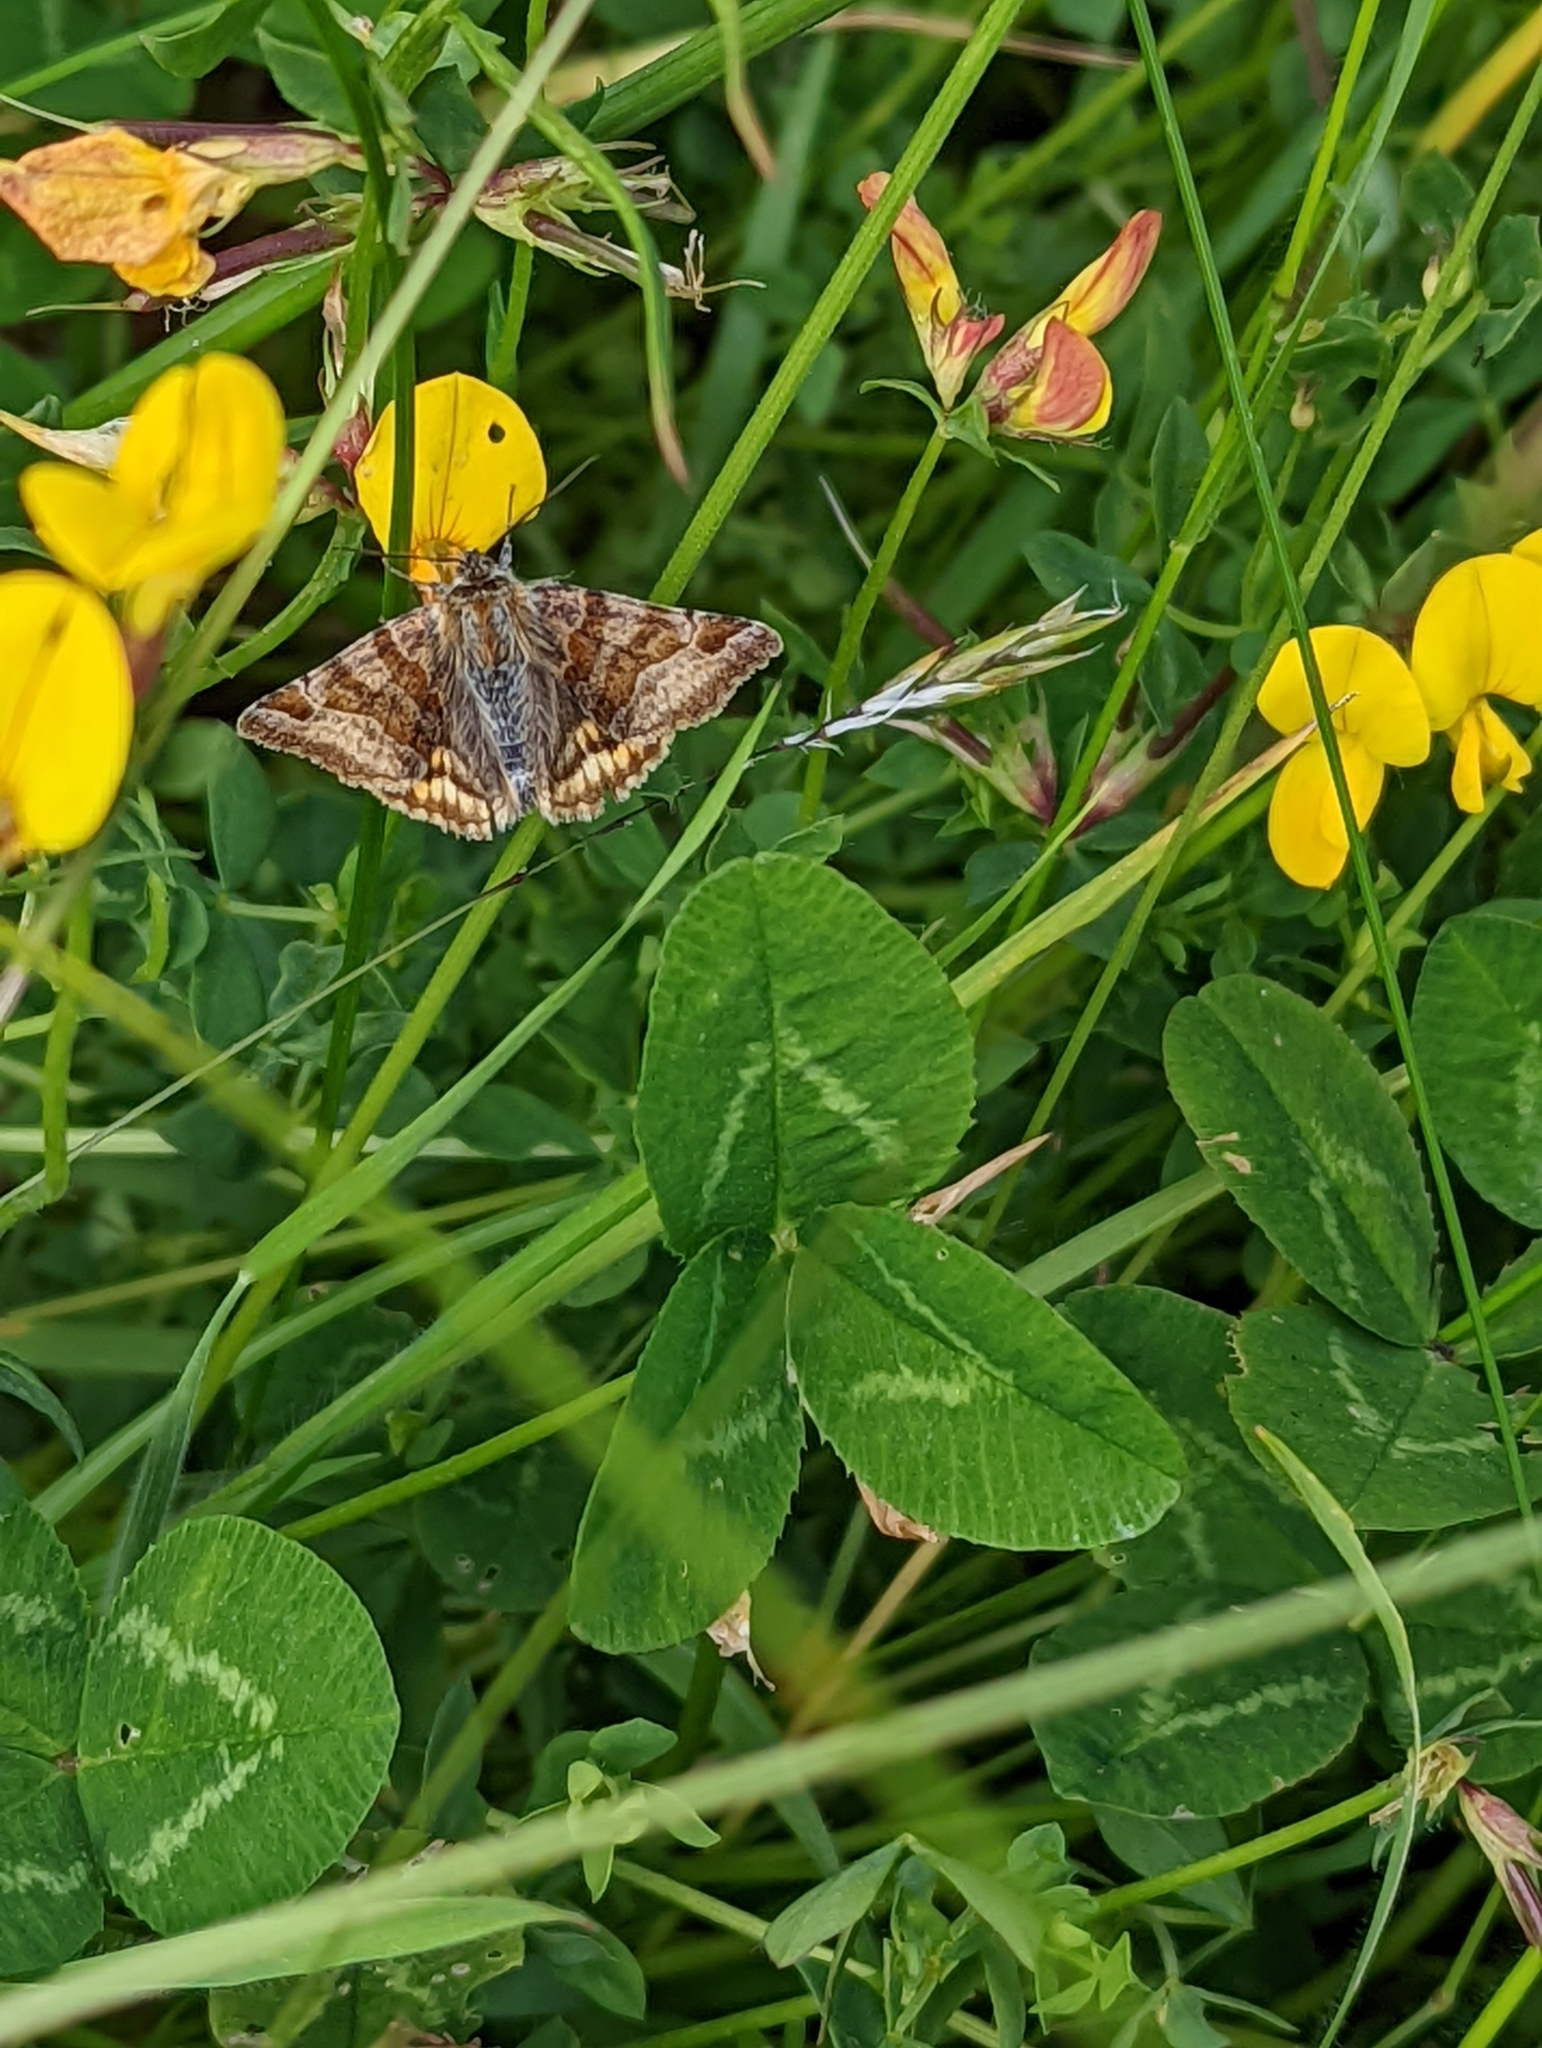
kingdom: Animalia
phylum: Arthropoda
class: Insecta
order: Lepidoptera
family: Erebidae
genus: Euclidia
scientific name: Euclidia glyphica
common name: Burnet companion
